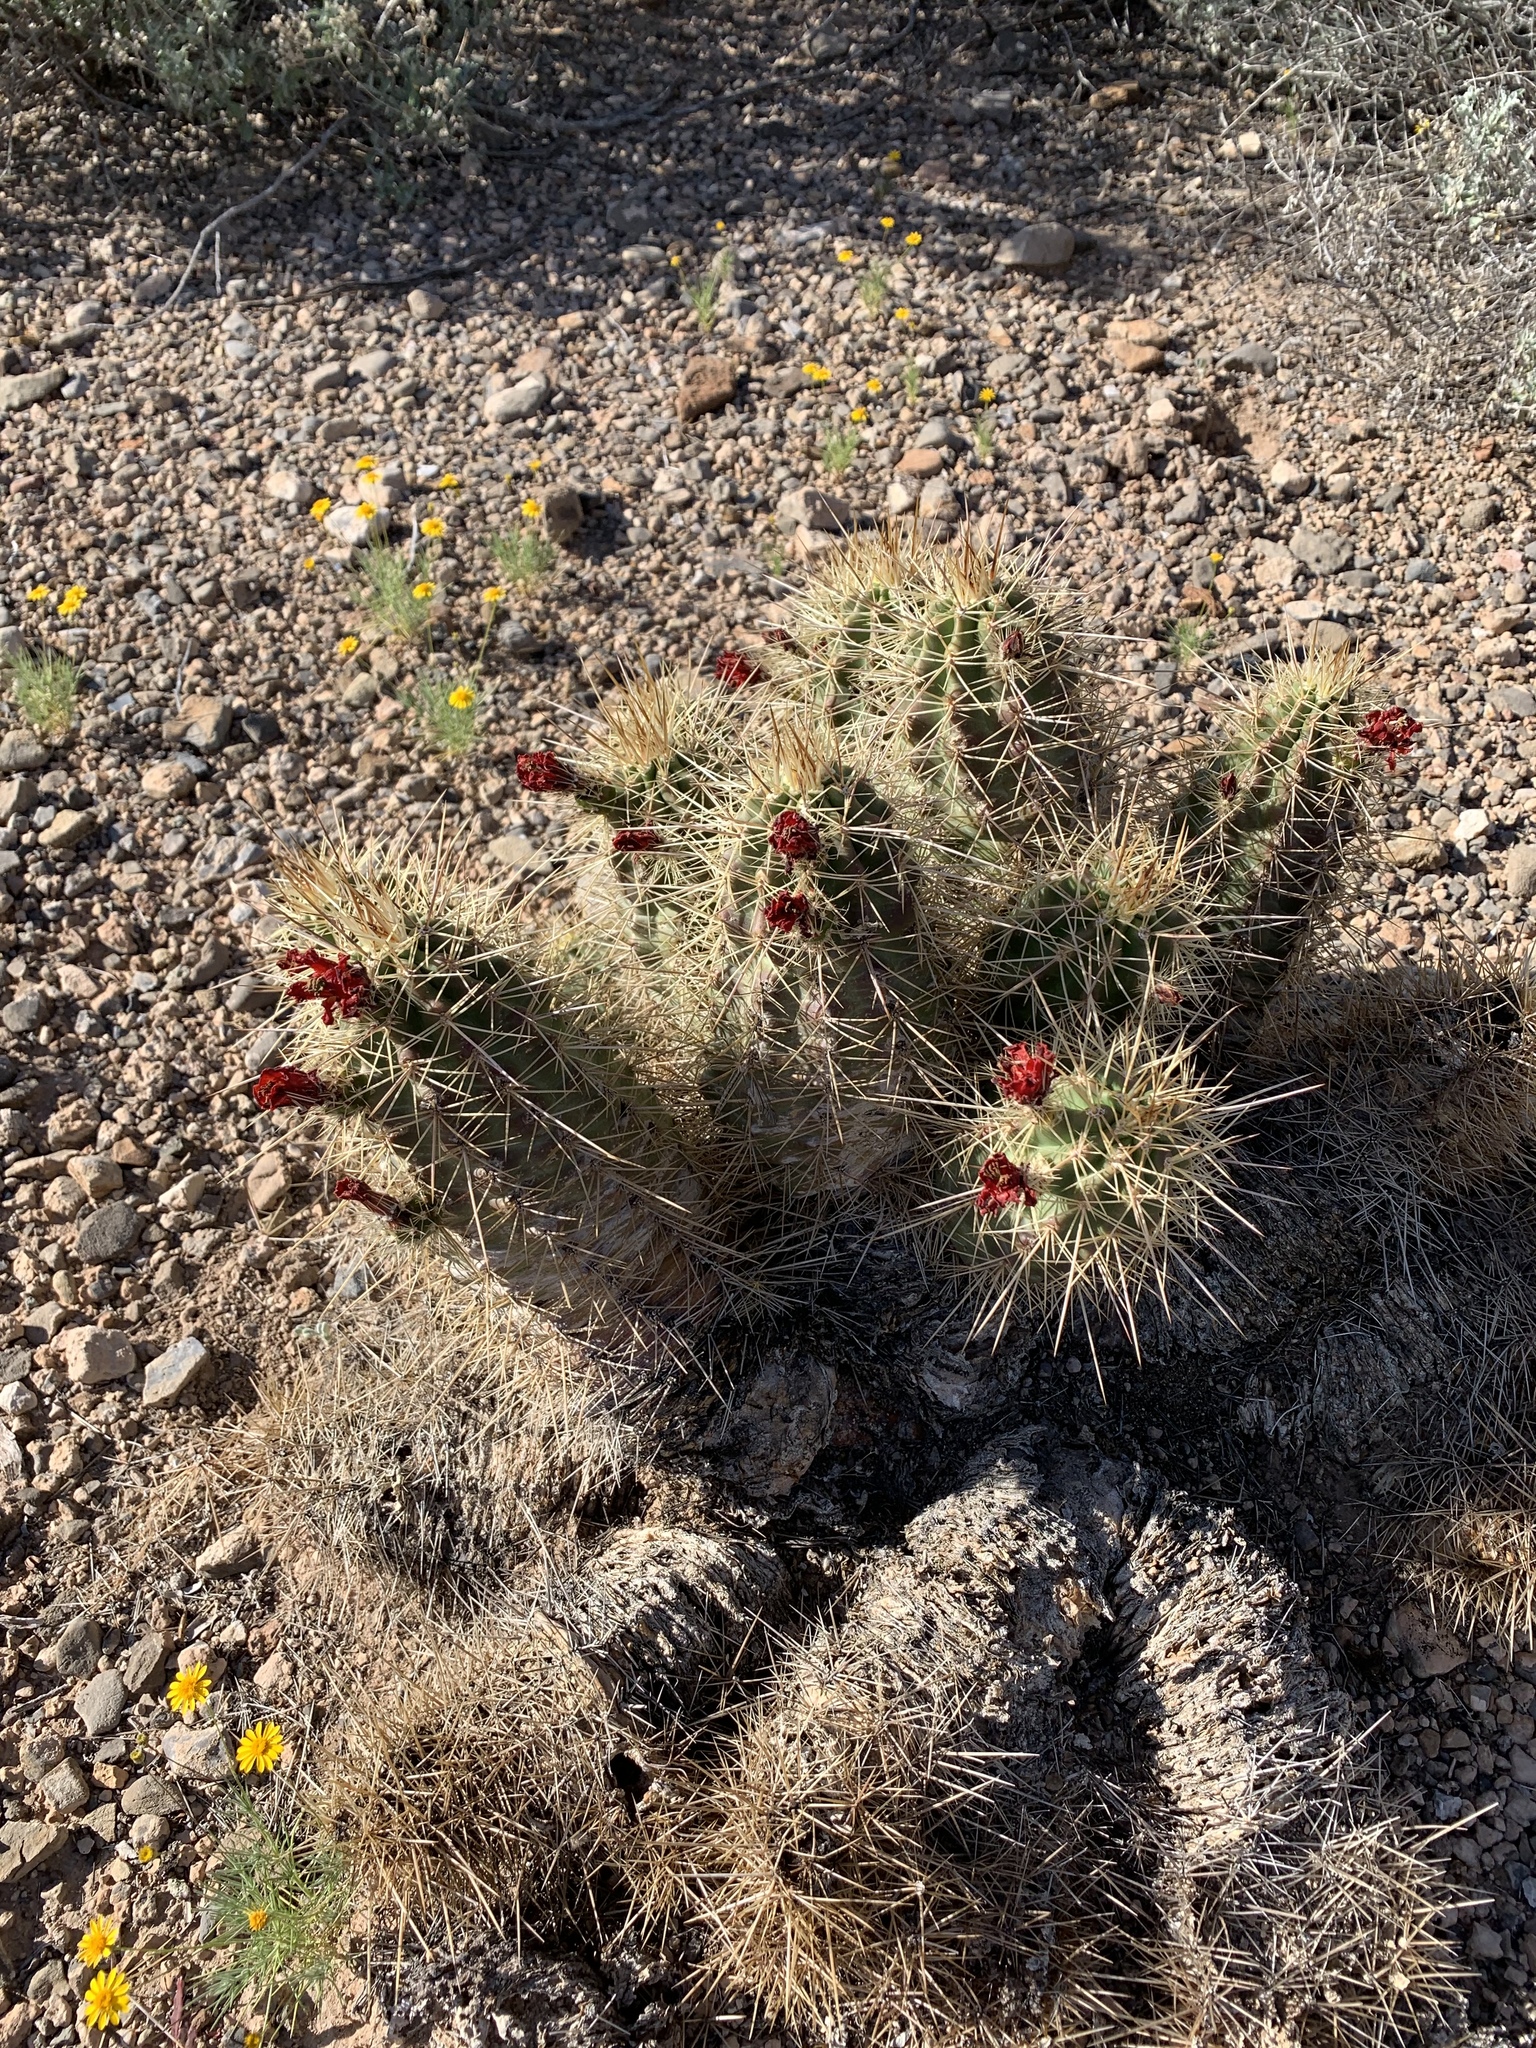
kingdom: Plantae
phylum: Tracheophyta
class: Magnoliopsida
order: Caryophyllales
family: Cactaceae
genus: Echinocereus
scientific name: Echinocereus coccineus
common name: Scarlet hedgehog cactus
